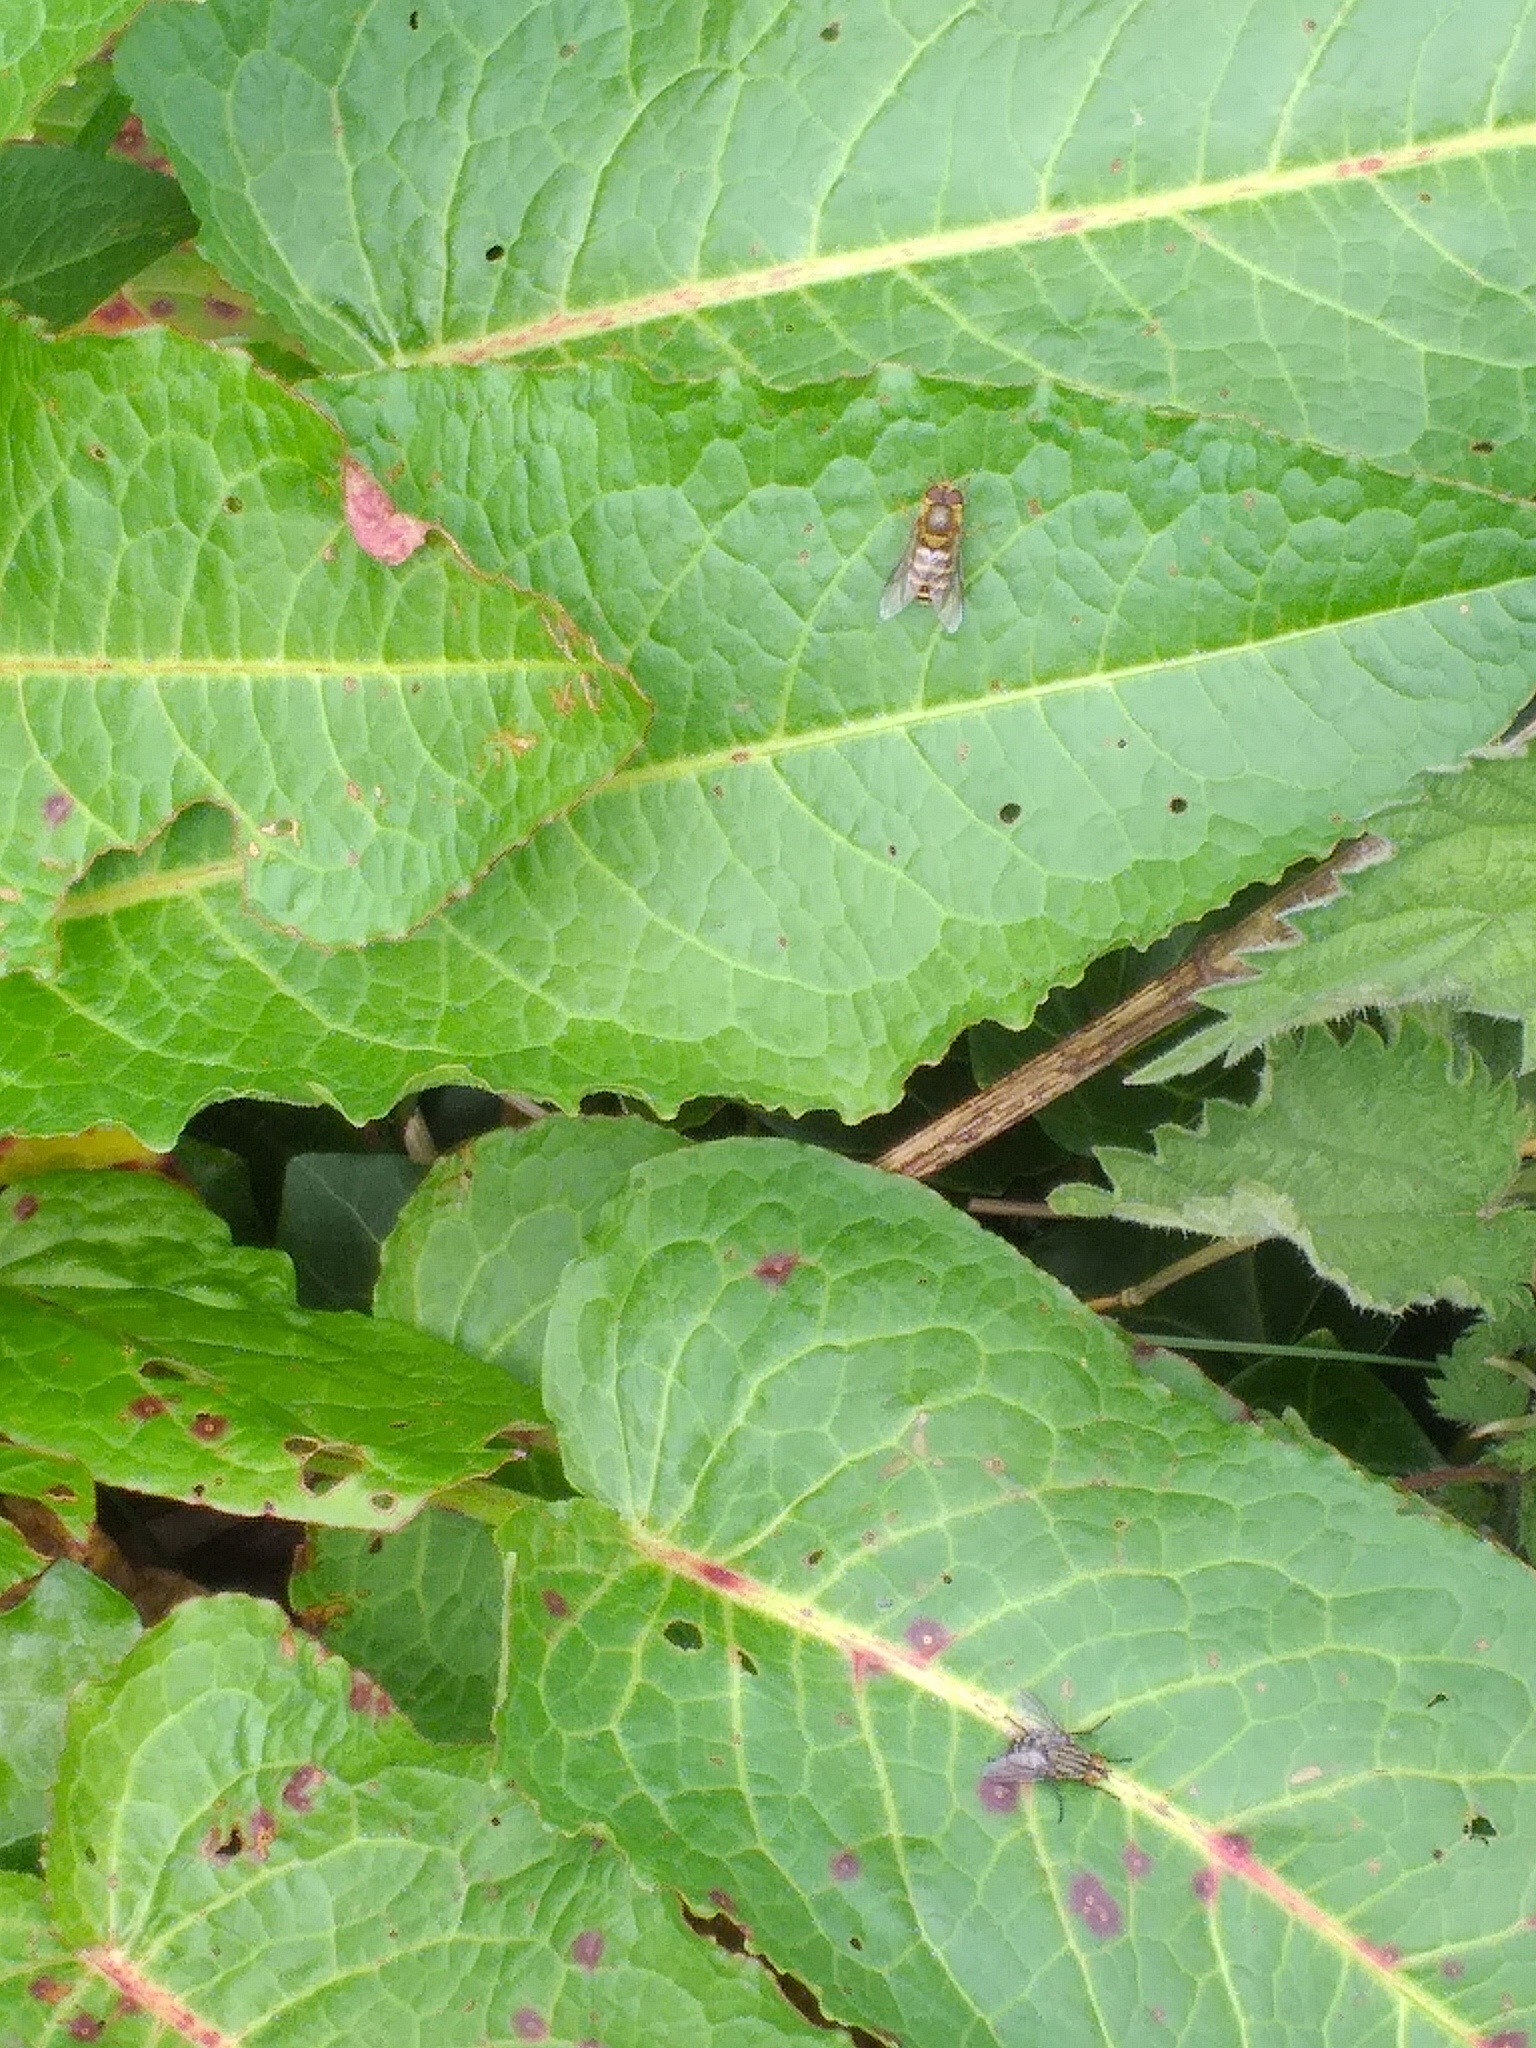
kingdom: Animalia
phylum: Arthropoda
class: Insecta
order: Diptera
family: Syrphidae
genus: Syrphus
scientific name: Syrphus
